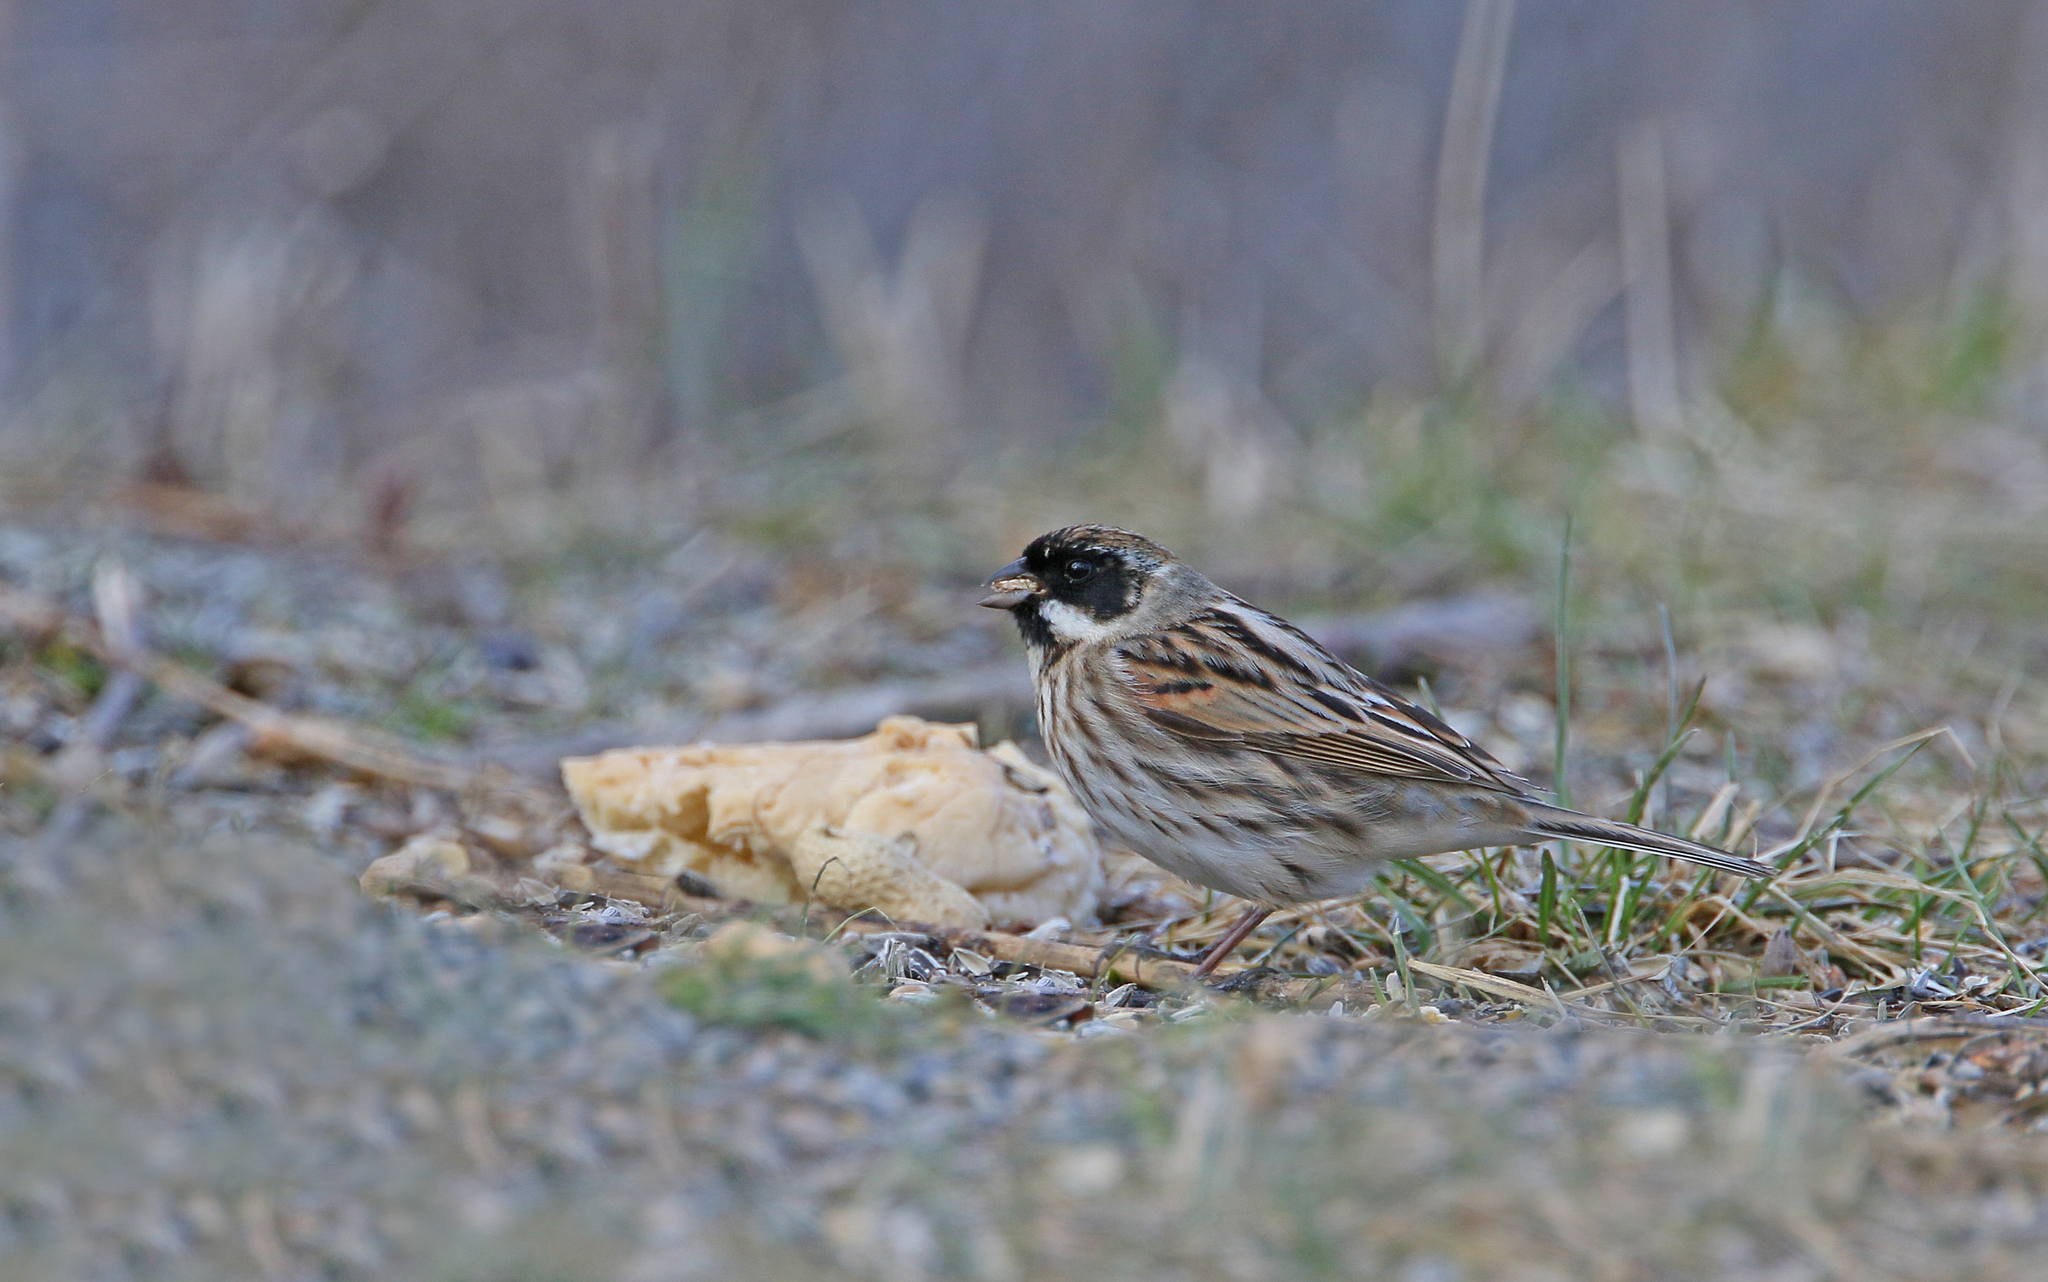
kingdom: Animalia
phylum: Chordata
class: Aves
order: Passeriformes
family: Emberizidae
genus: Emberiza
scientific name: Emberiza schoeniclus
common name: Reed bunting
